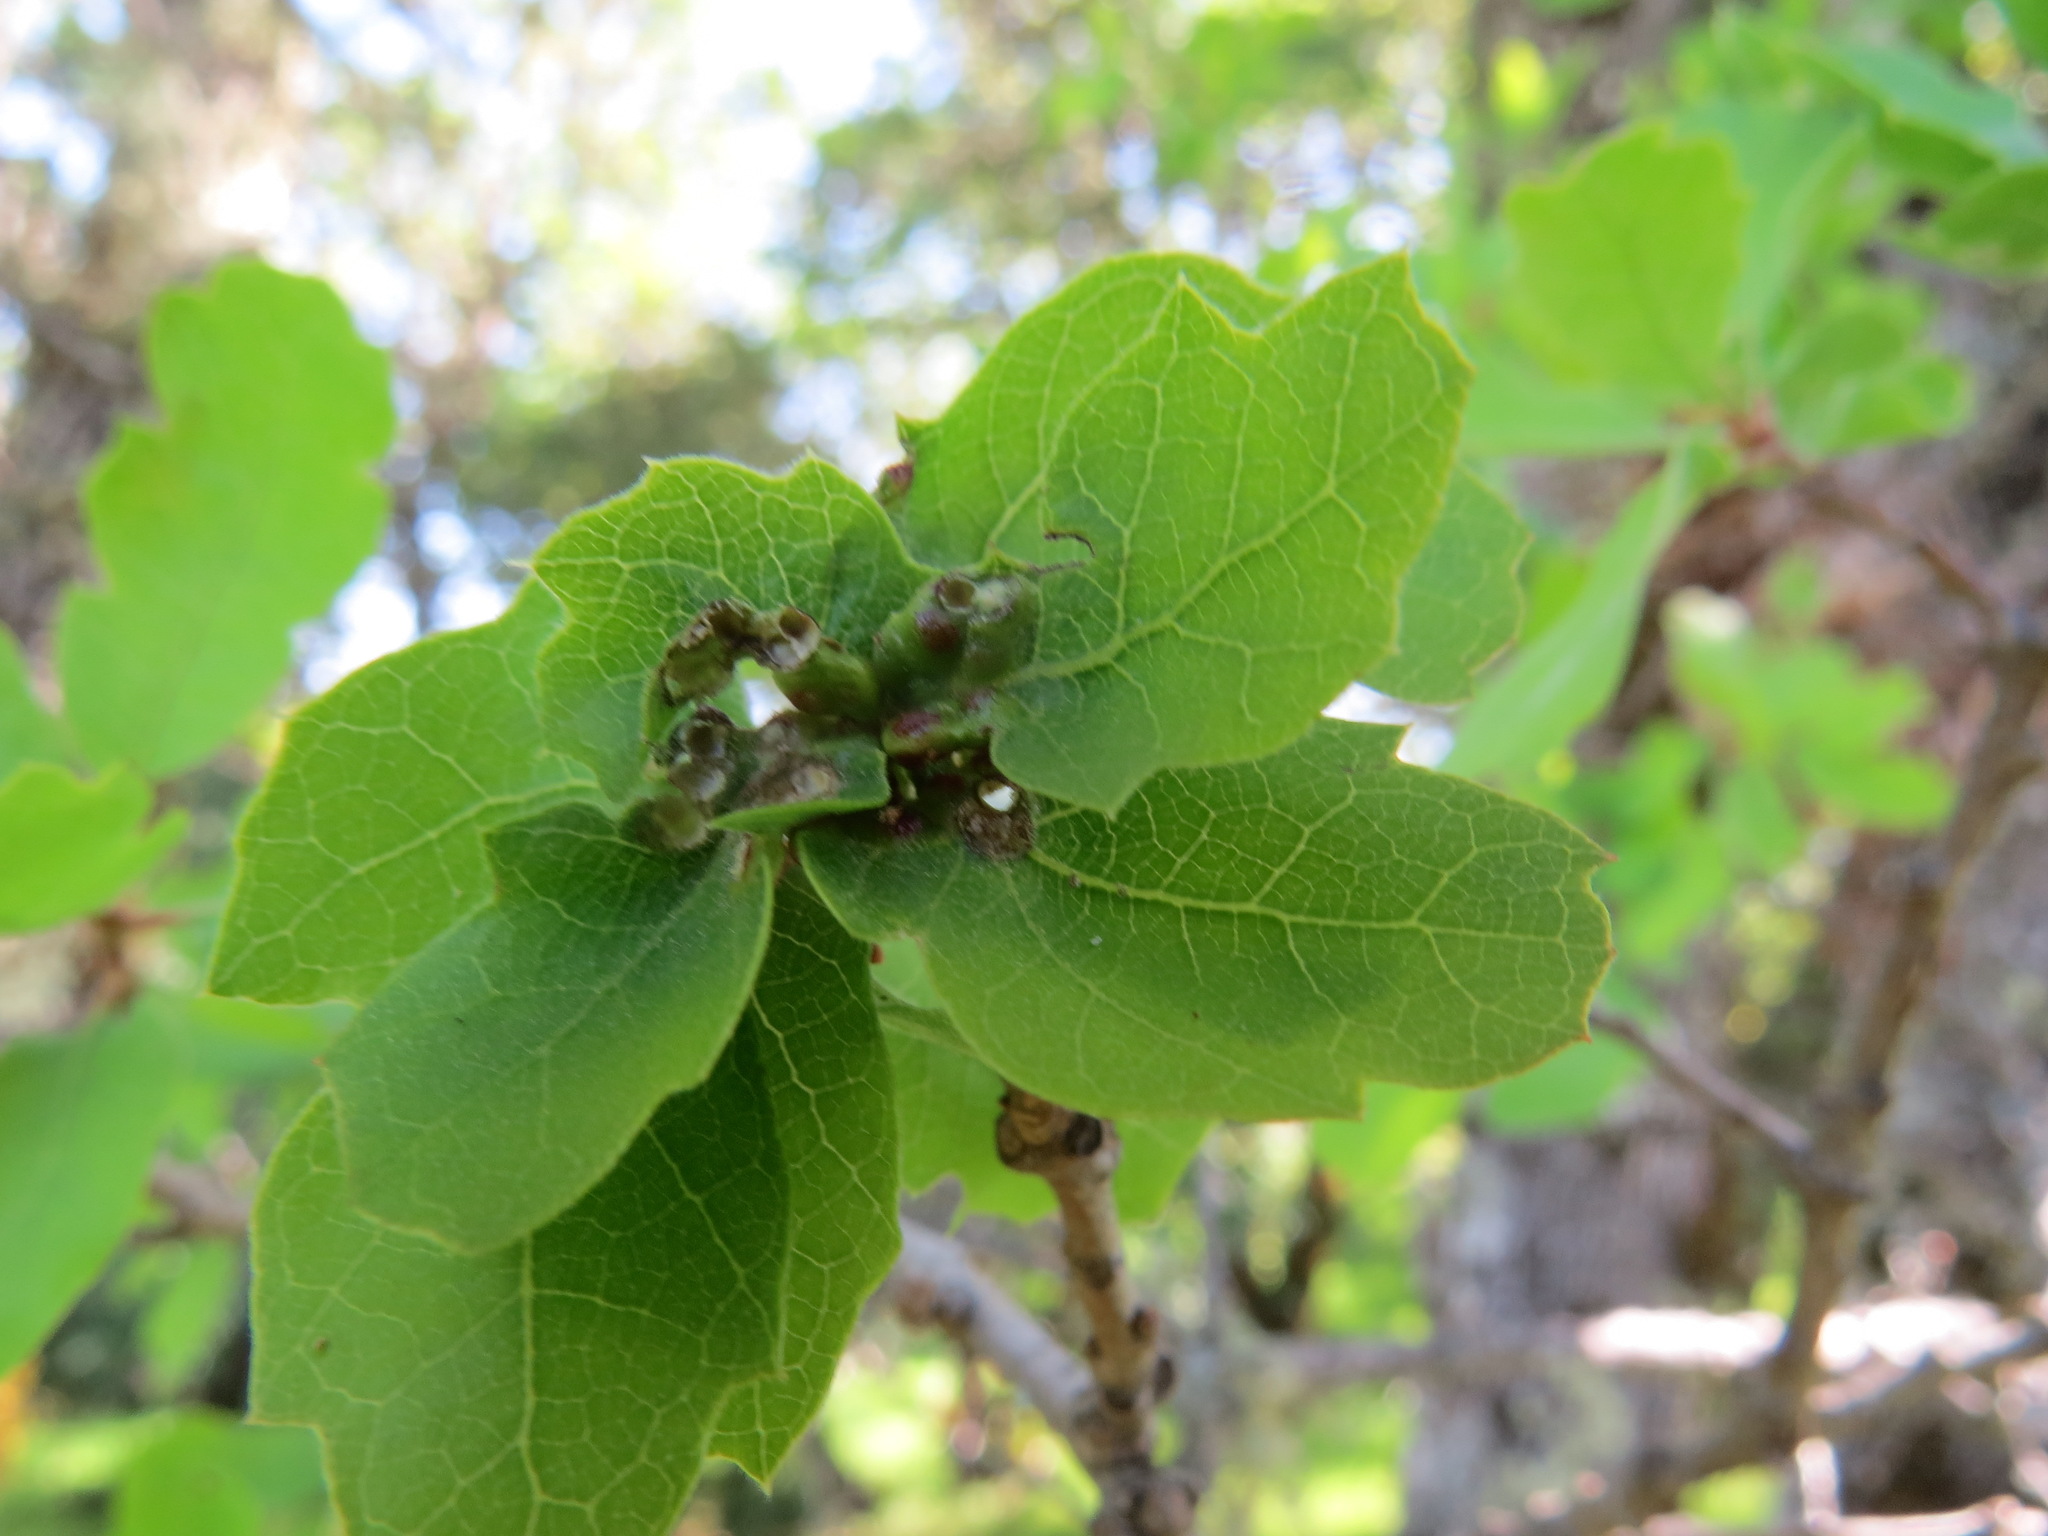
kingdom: Animalia
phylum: Arthropoda
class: Insecta
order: Hymenoptera
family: Cynipidae
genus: Neuroterus
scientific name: Neuroterus saltarius
